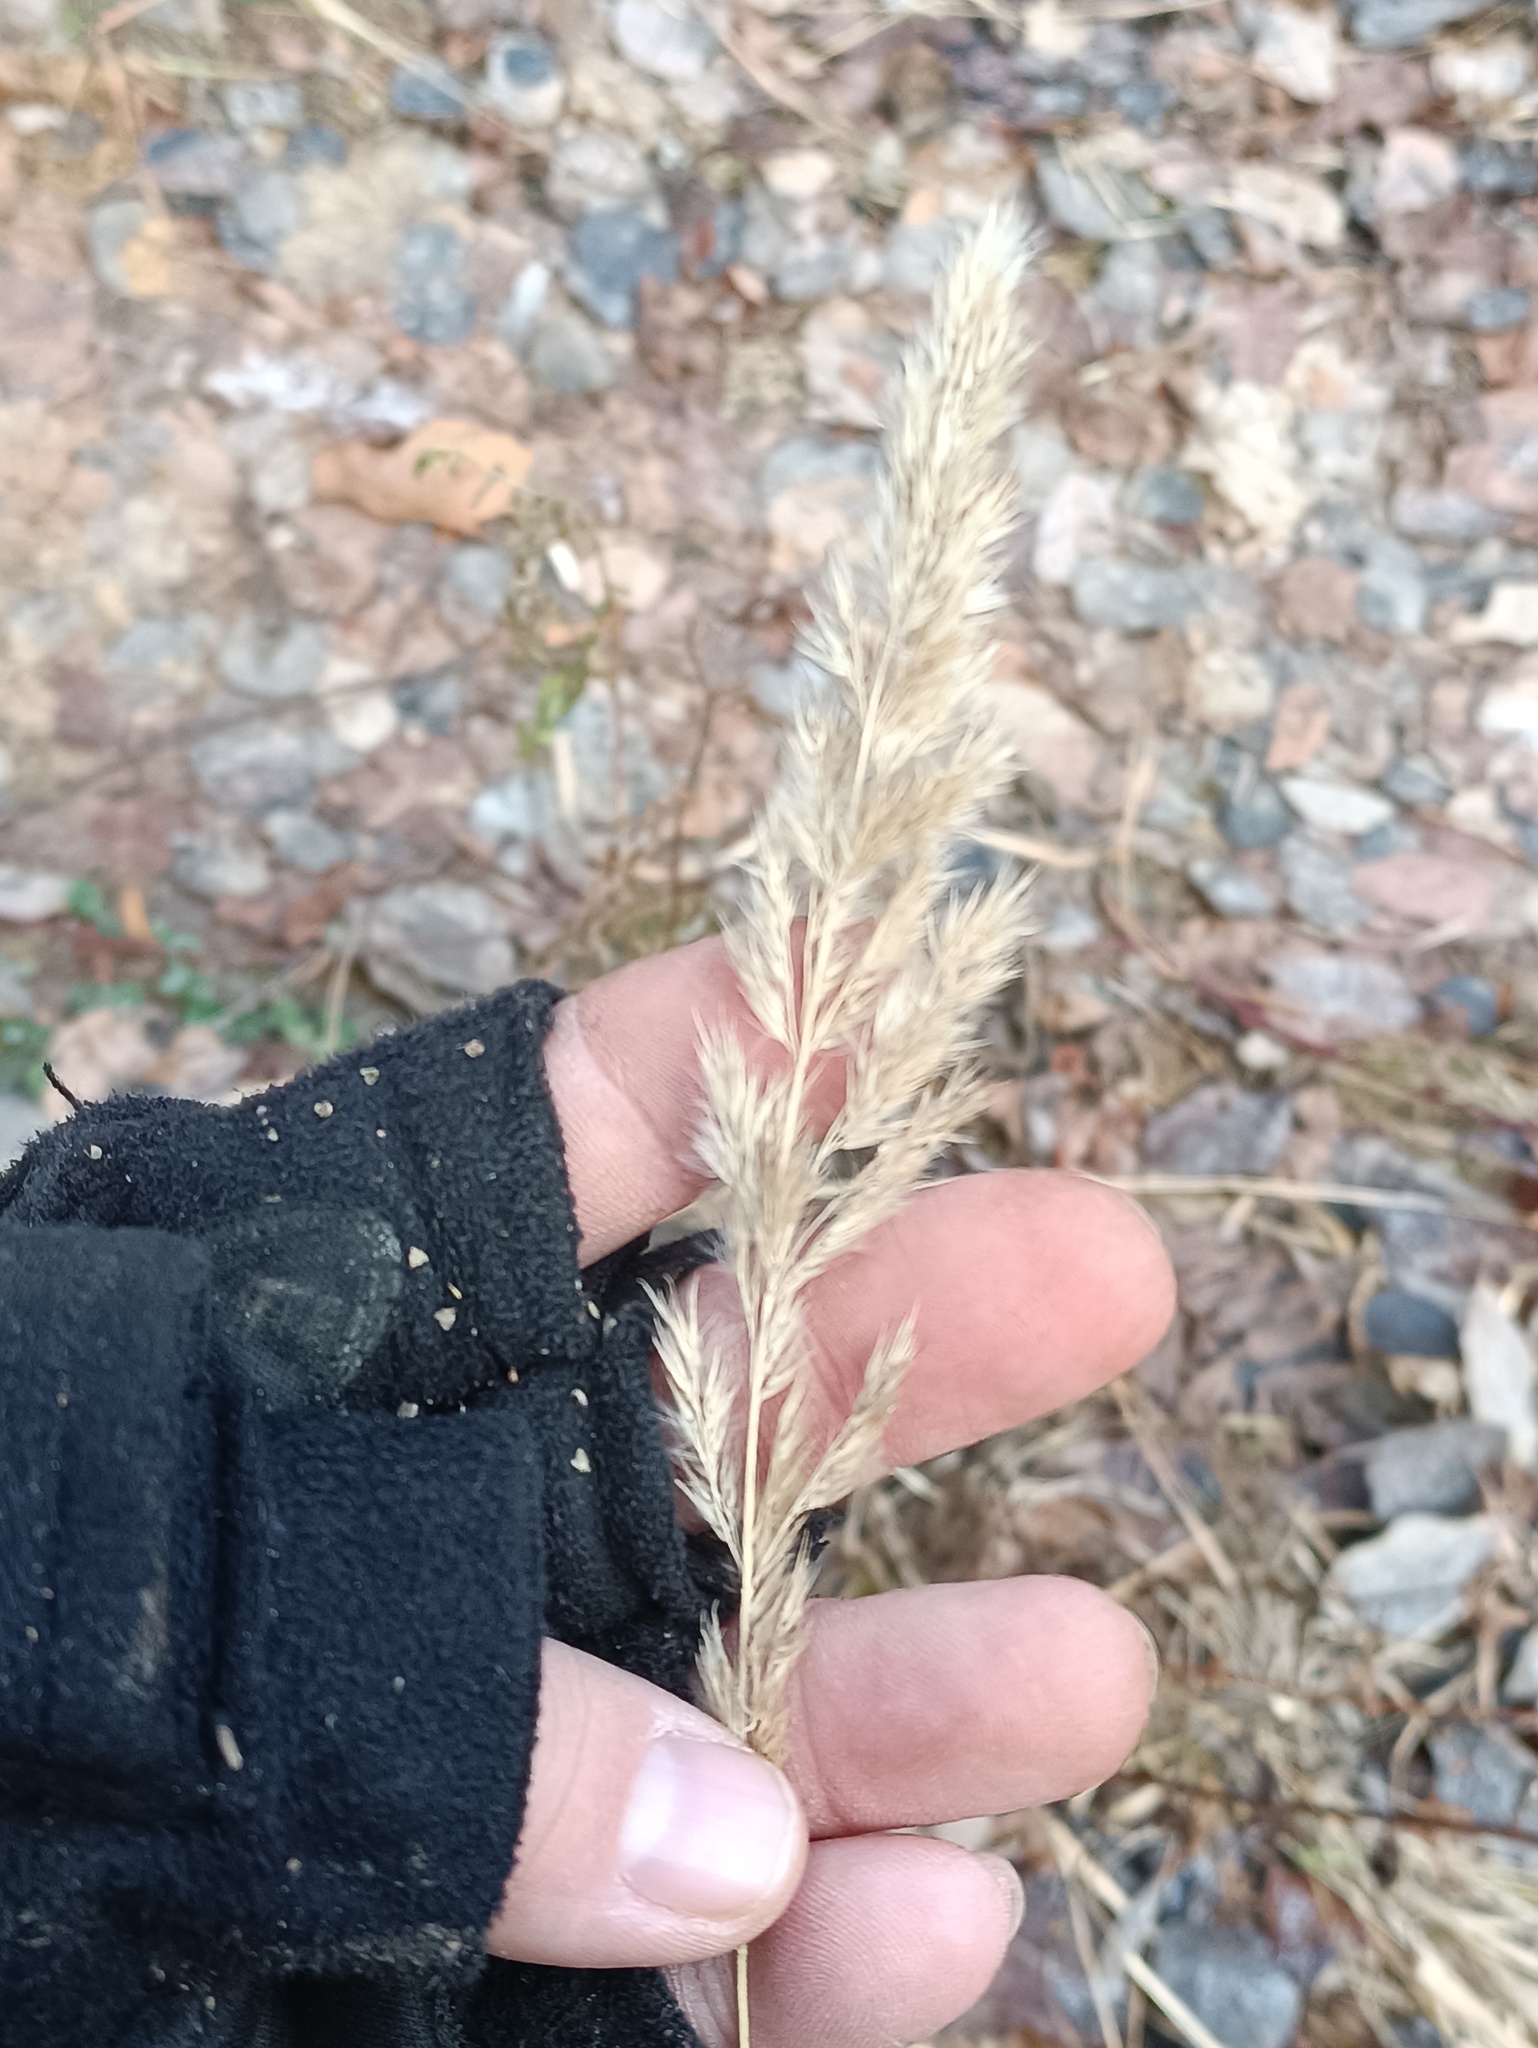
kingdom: Plantae
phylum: Tracheophyta
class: Liliopsida
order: Poales
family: Poaceae
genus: Calamagrostis
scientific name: Calamagrostis epigejos
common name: Wood small-reed
